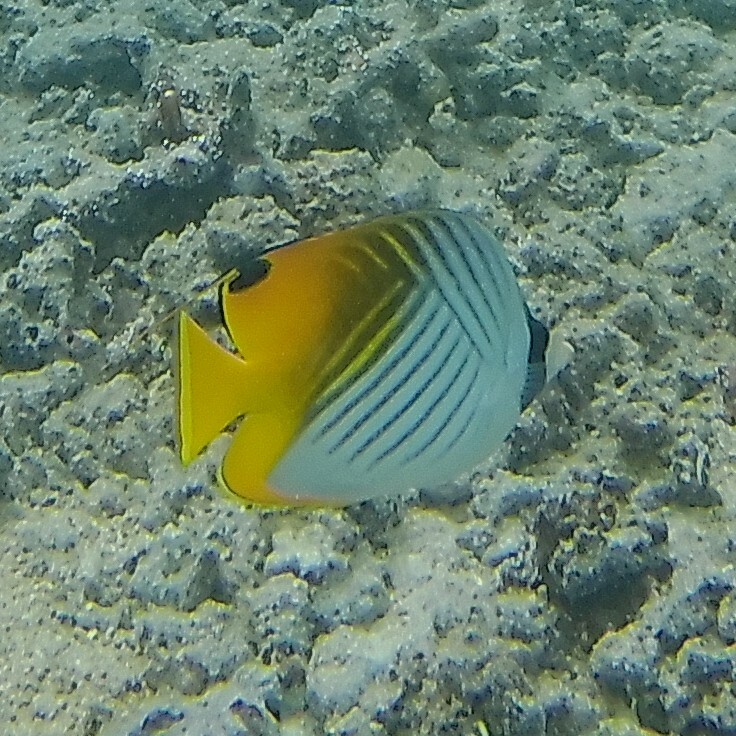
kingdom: Animalia
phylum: Chordata
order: Perciformes
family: Chaetodontidae
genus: Chaetodon
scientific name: Chaetodon auriga
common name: Threadfin butterflyfish
